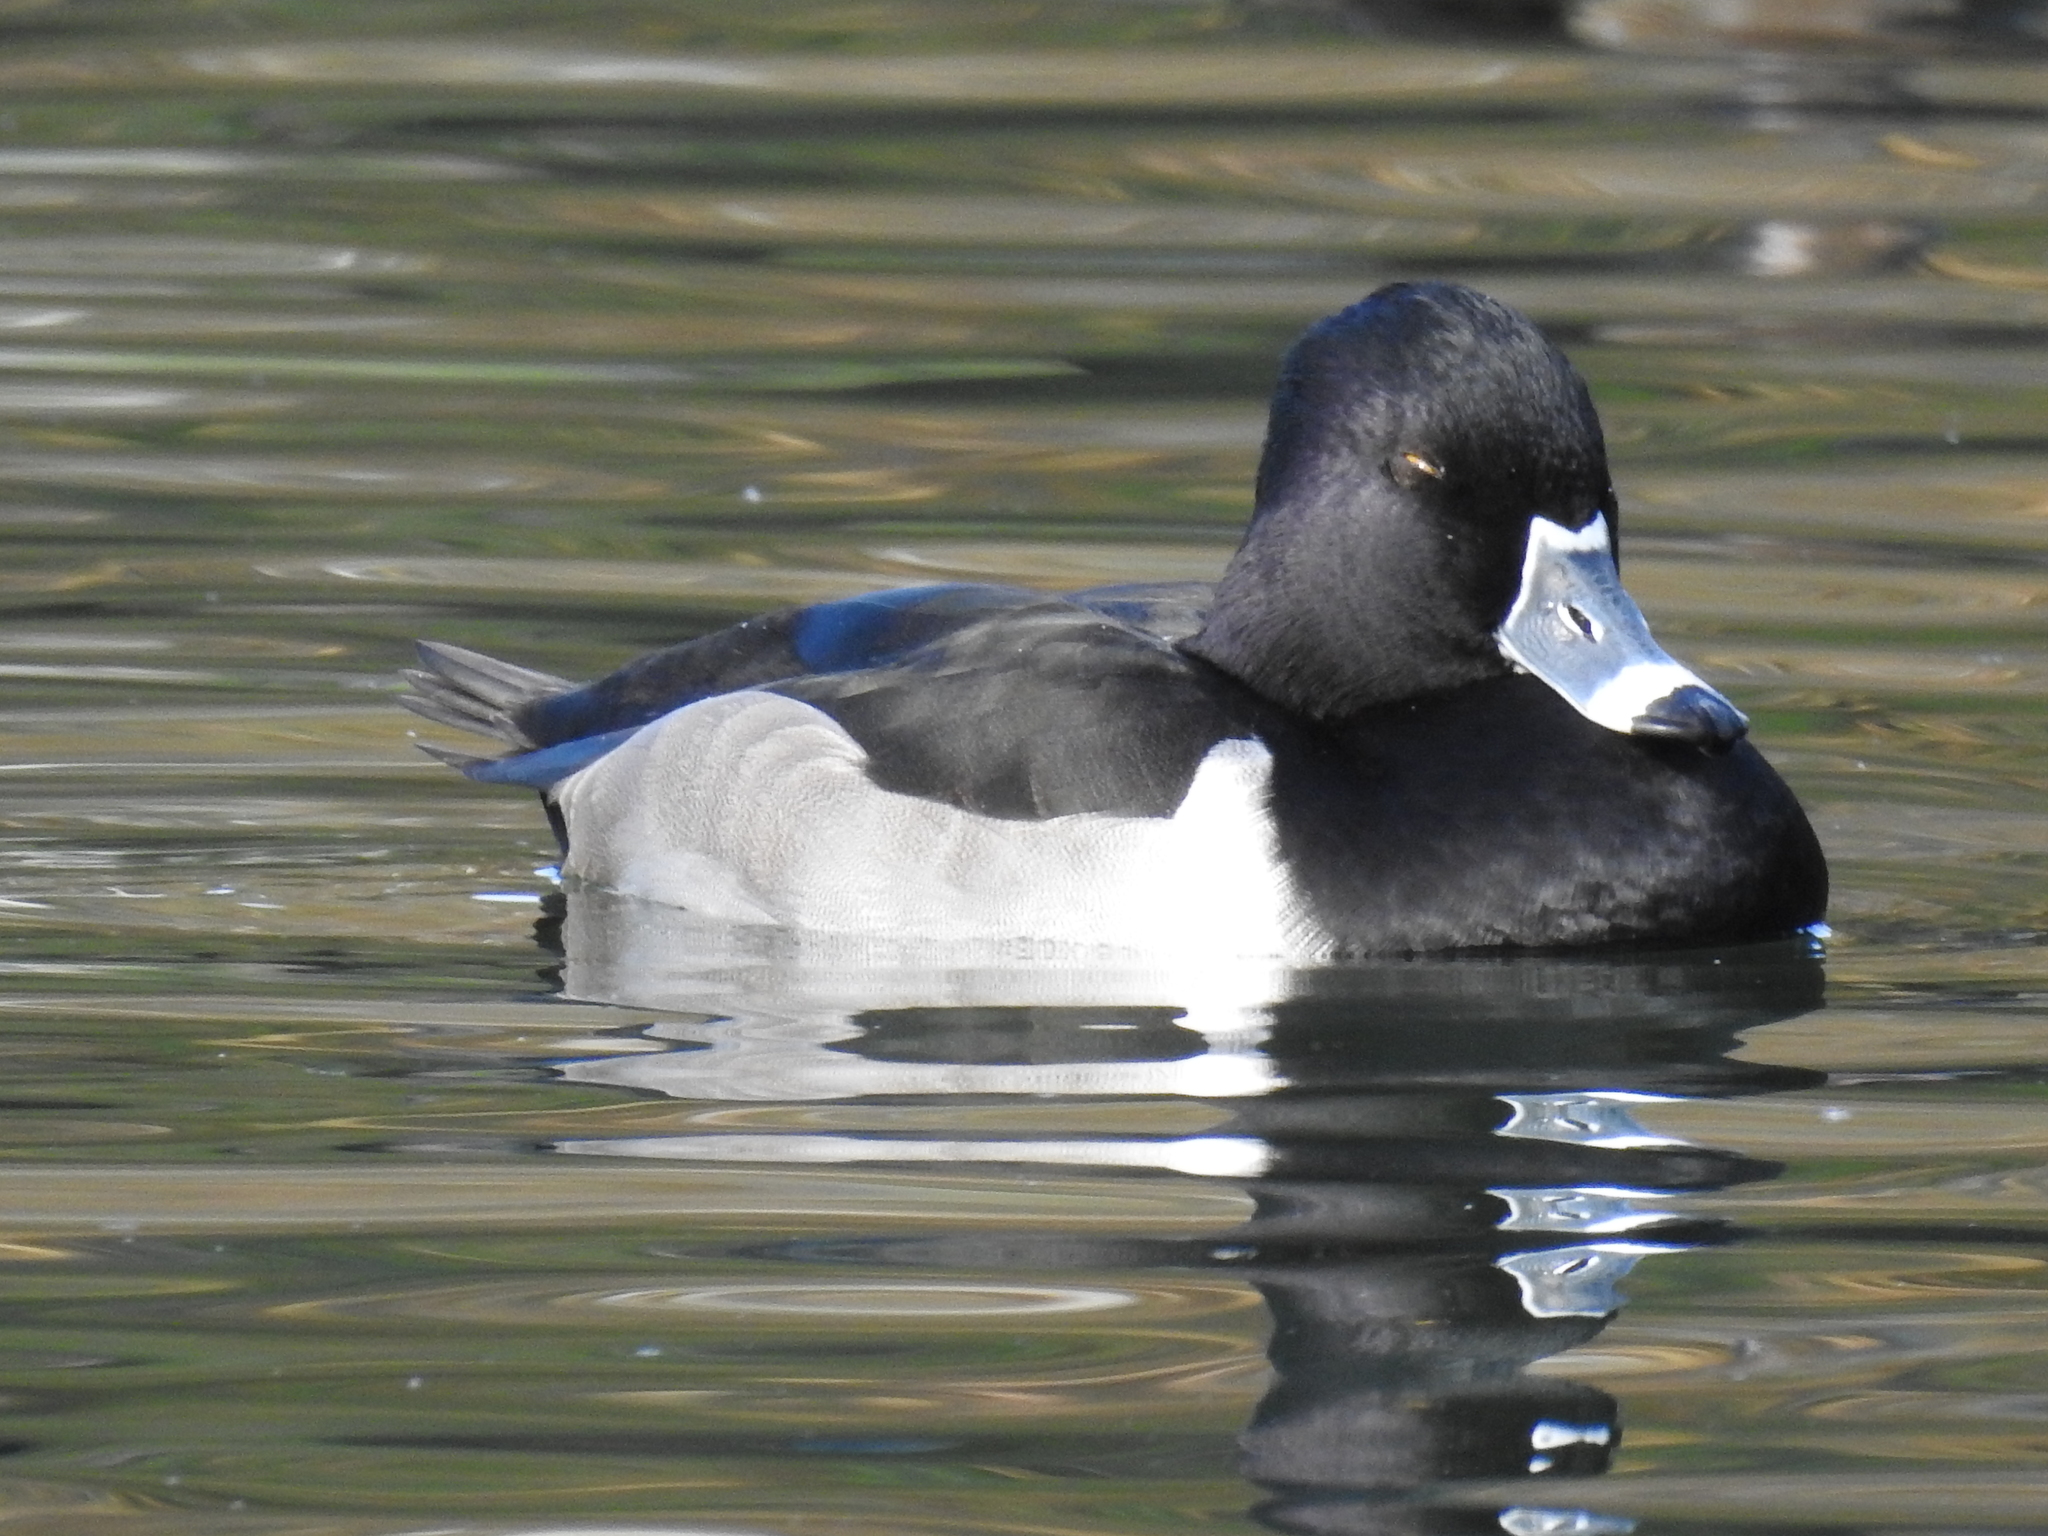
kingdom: Animalia
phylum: Chordata
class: Aves
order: Anseriformes
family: Anatidae
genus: Aythya
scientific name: Aythya collaris
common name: Ring-necked duck
